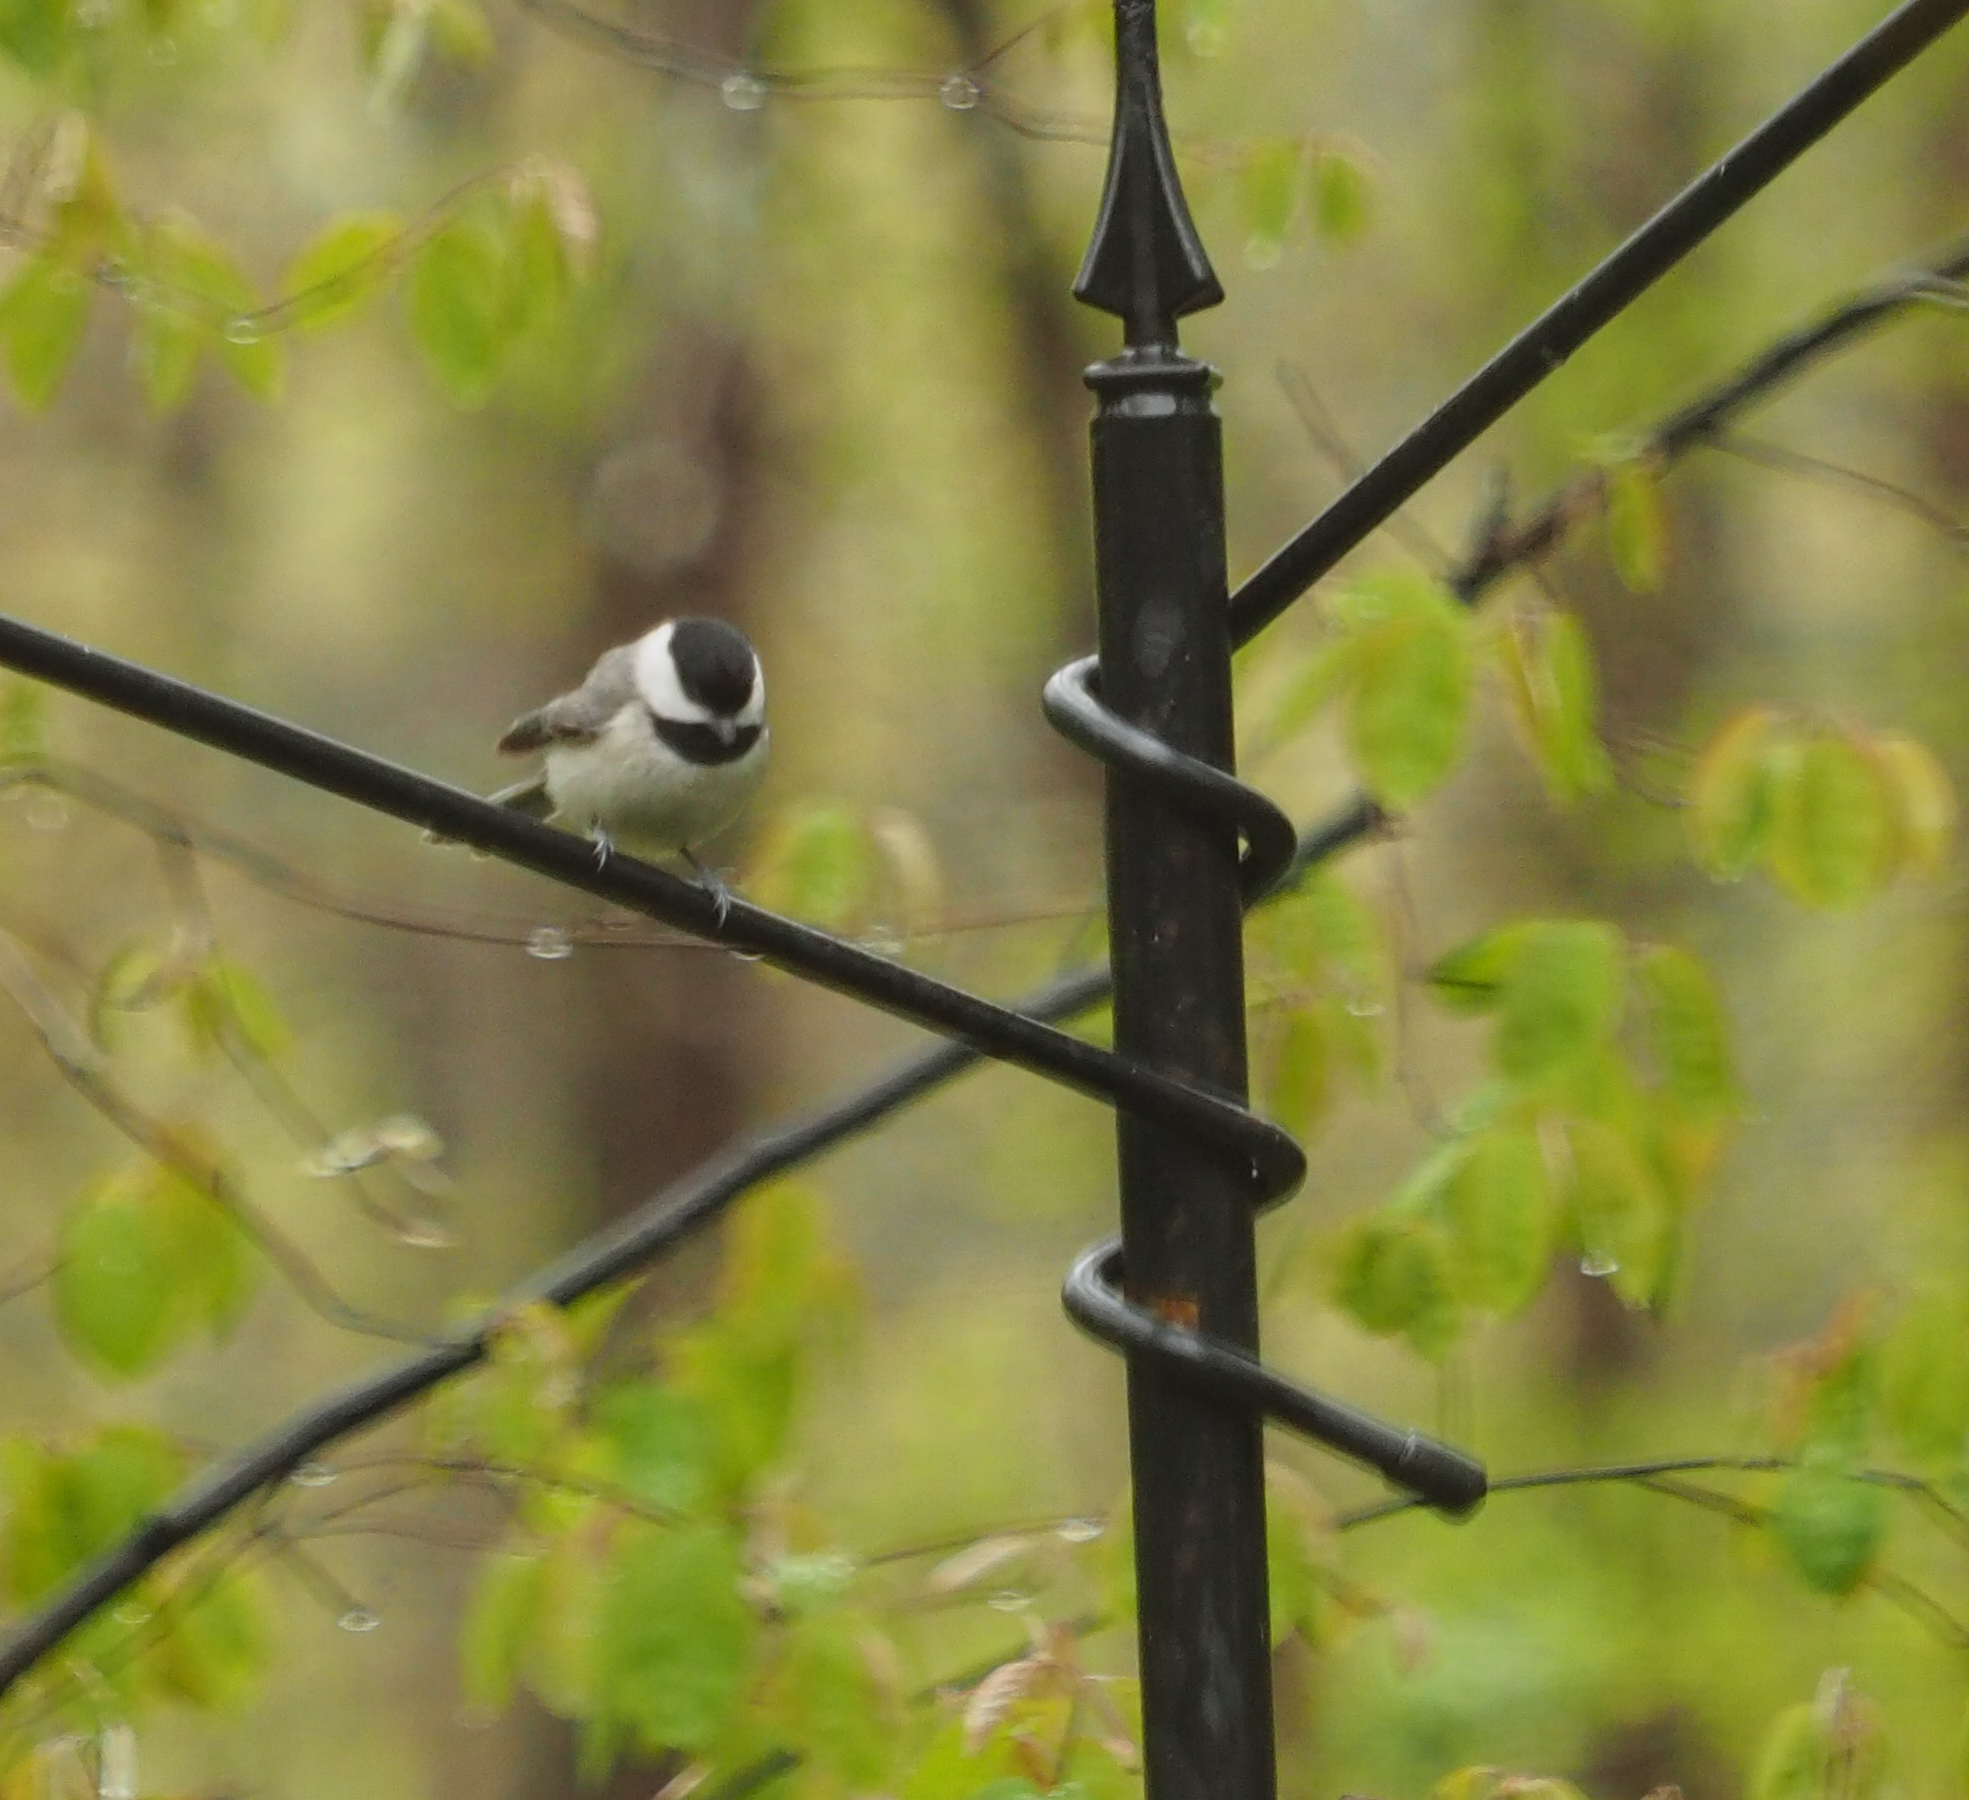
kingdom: Animalia
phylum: Chordata
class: Aves
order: Passeriformes
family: Paridae
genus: Poecile
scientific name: Poecile carolinensis
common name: Carolina chickadee
